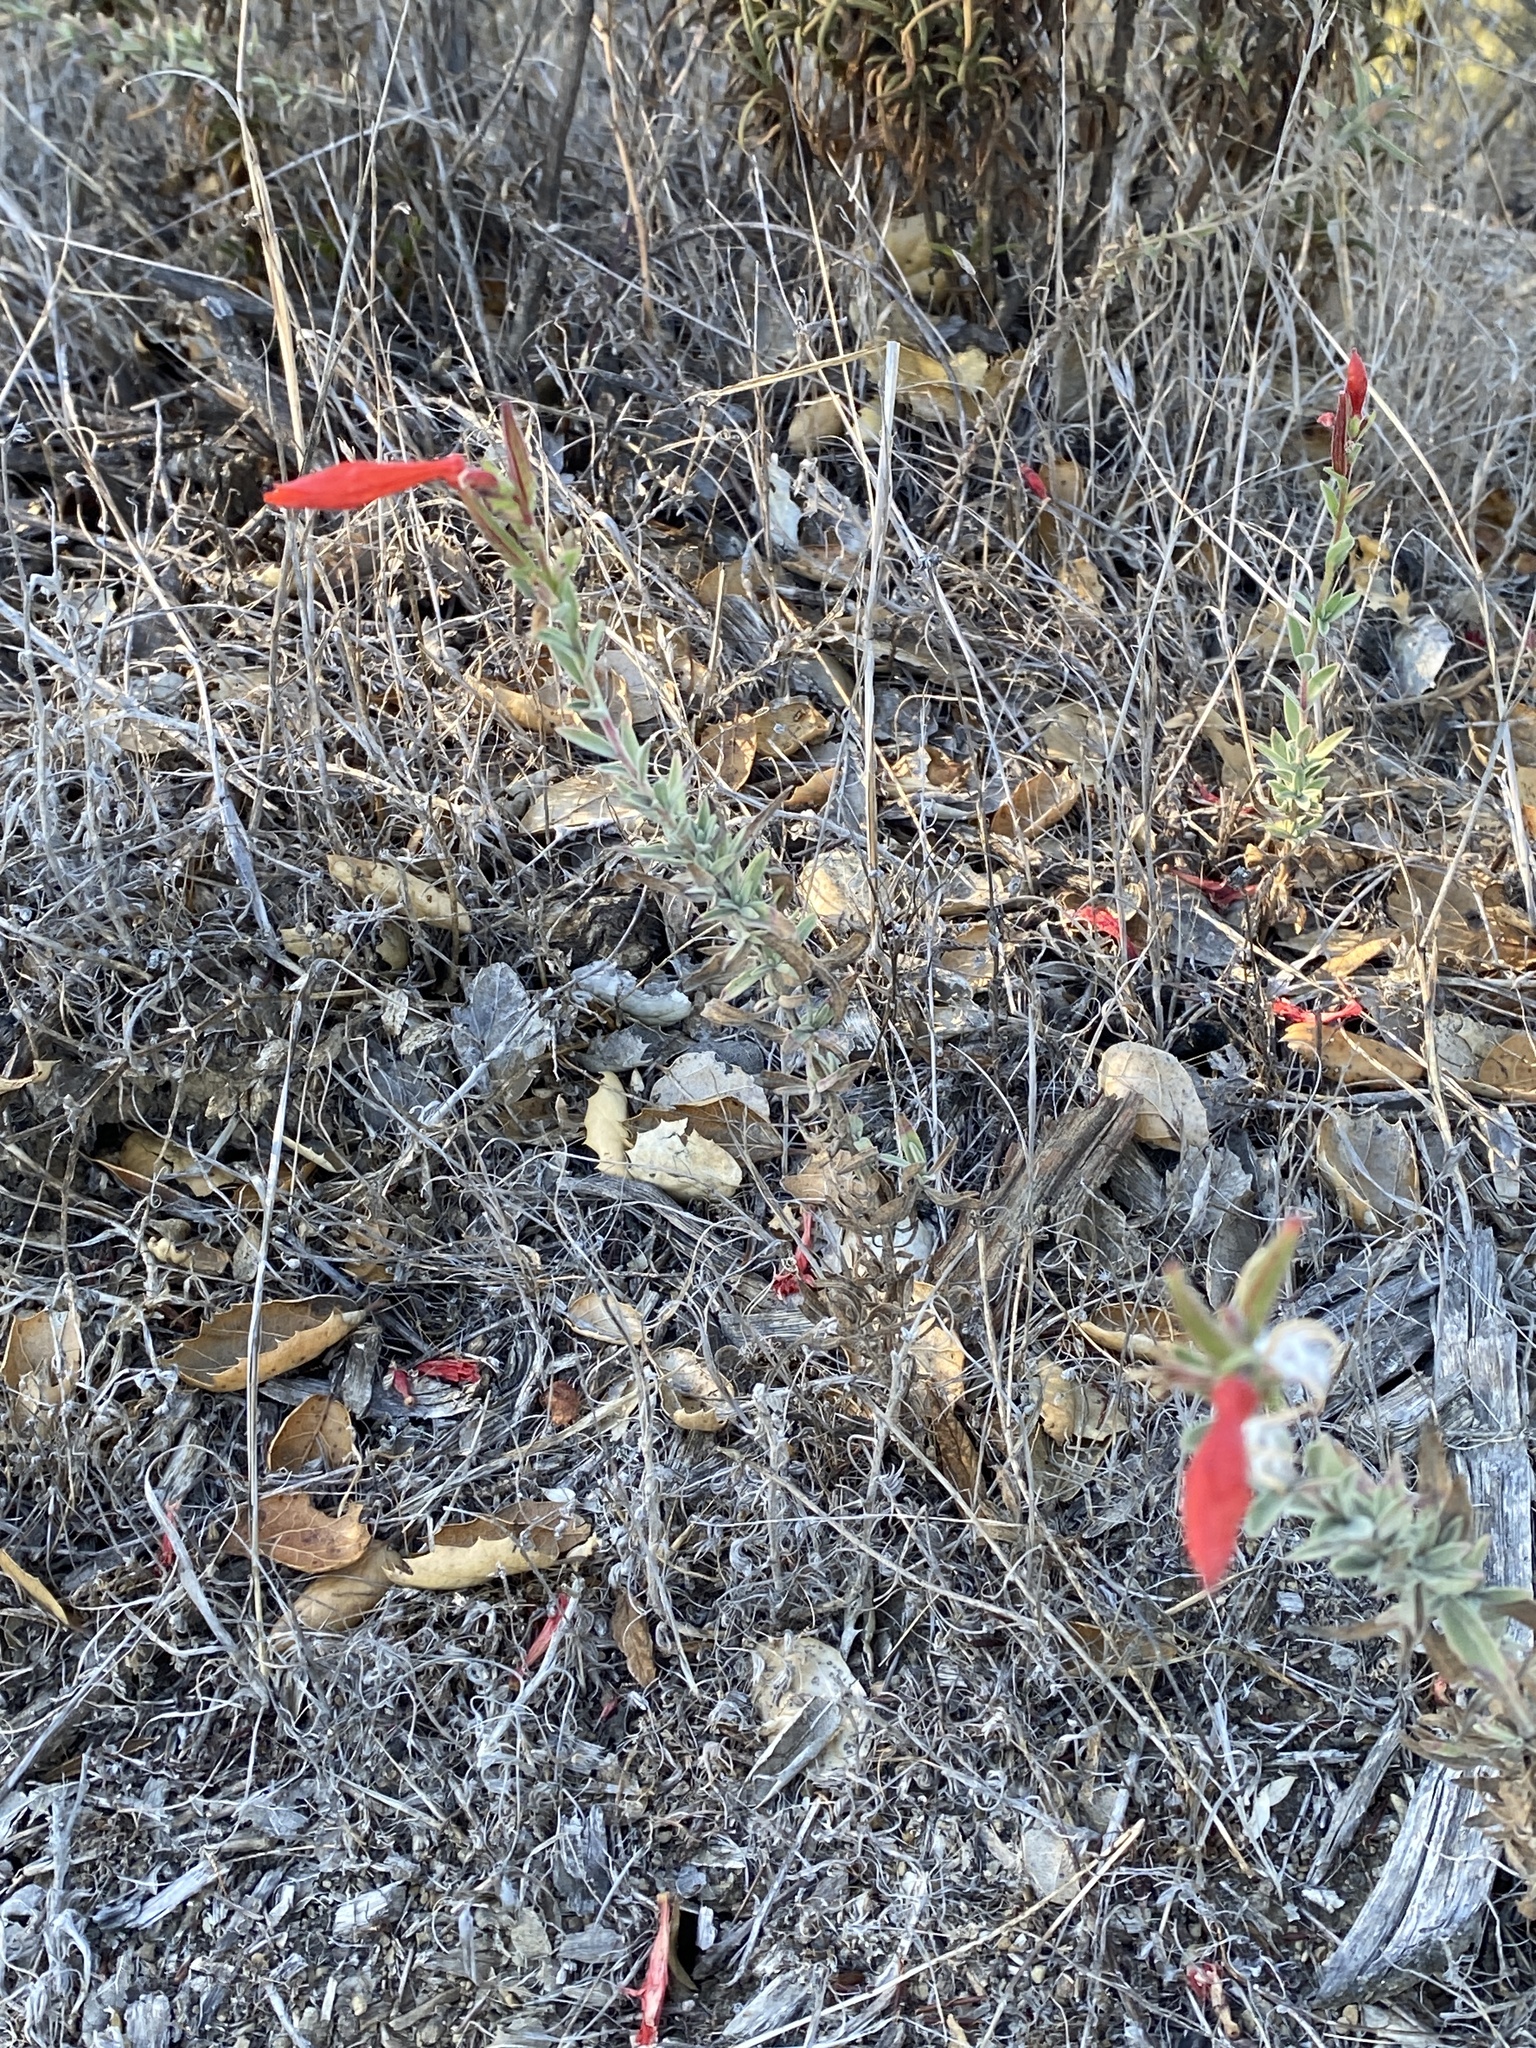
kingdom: Plantae
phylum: Tracheophyta
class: Magnoliopsida
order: Myrtales
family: Onagraceae
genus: Epilobium
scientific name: Epilobium canum
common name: California-fuchsia
